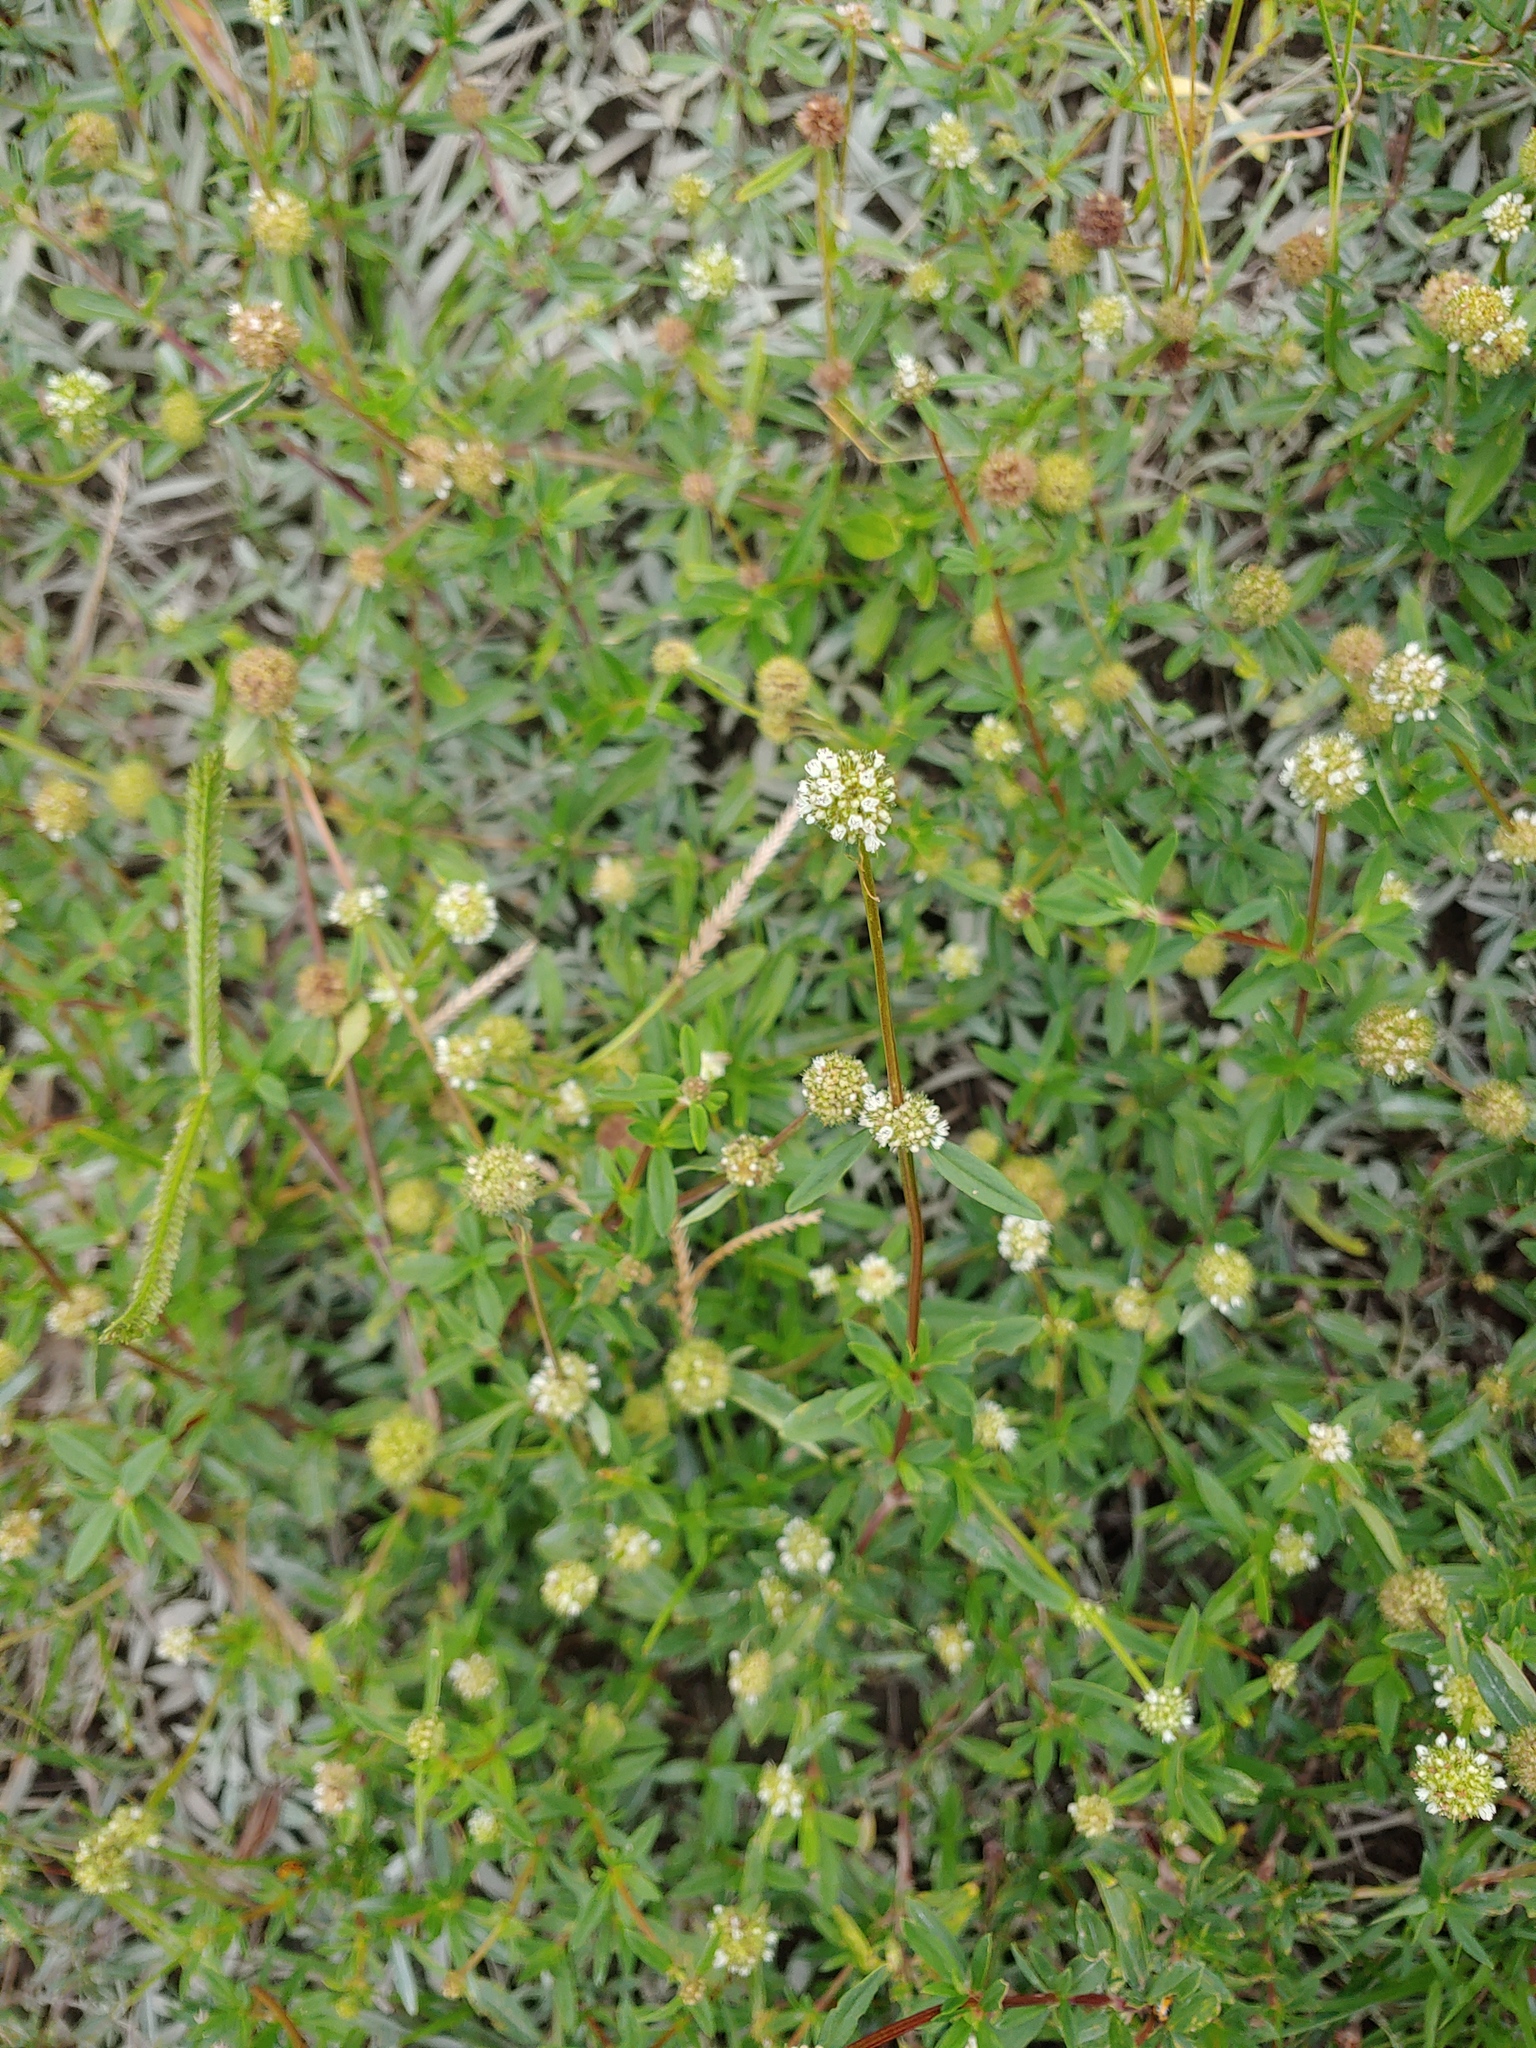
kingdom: Plantae
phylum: Tracheophyta
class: Magnoliopsida
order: Gentianales
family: Rubiaceae
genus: Spermacoce
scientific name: Spermacoce verticillata
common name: Shrubby false buttonweed
